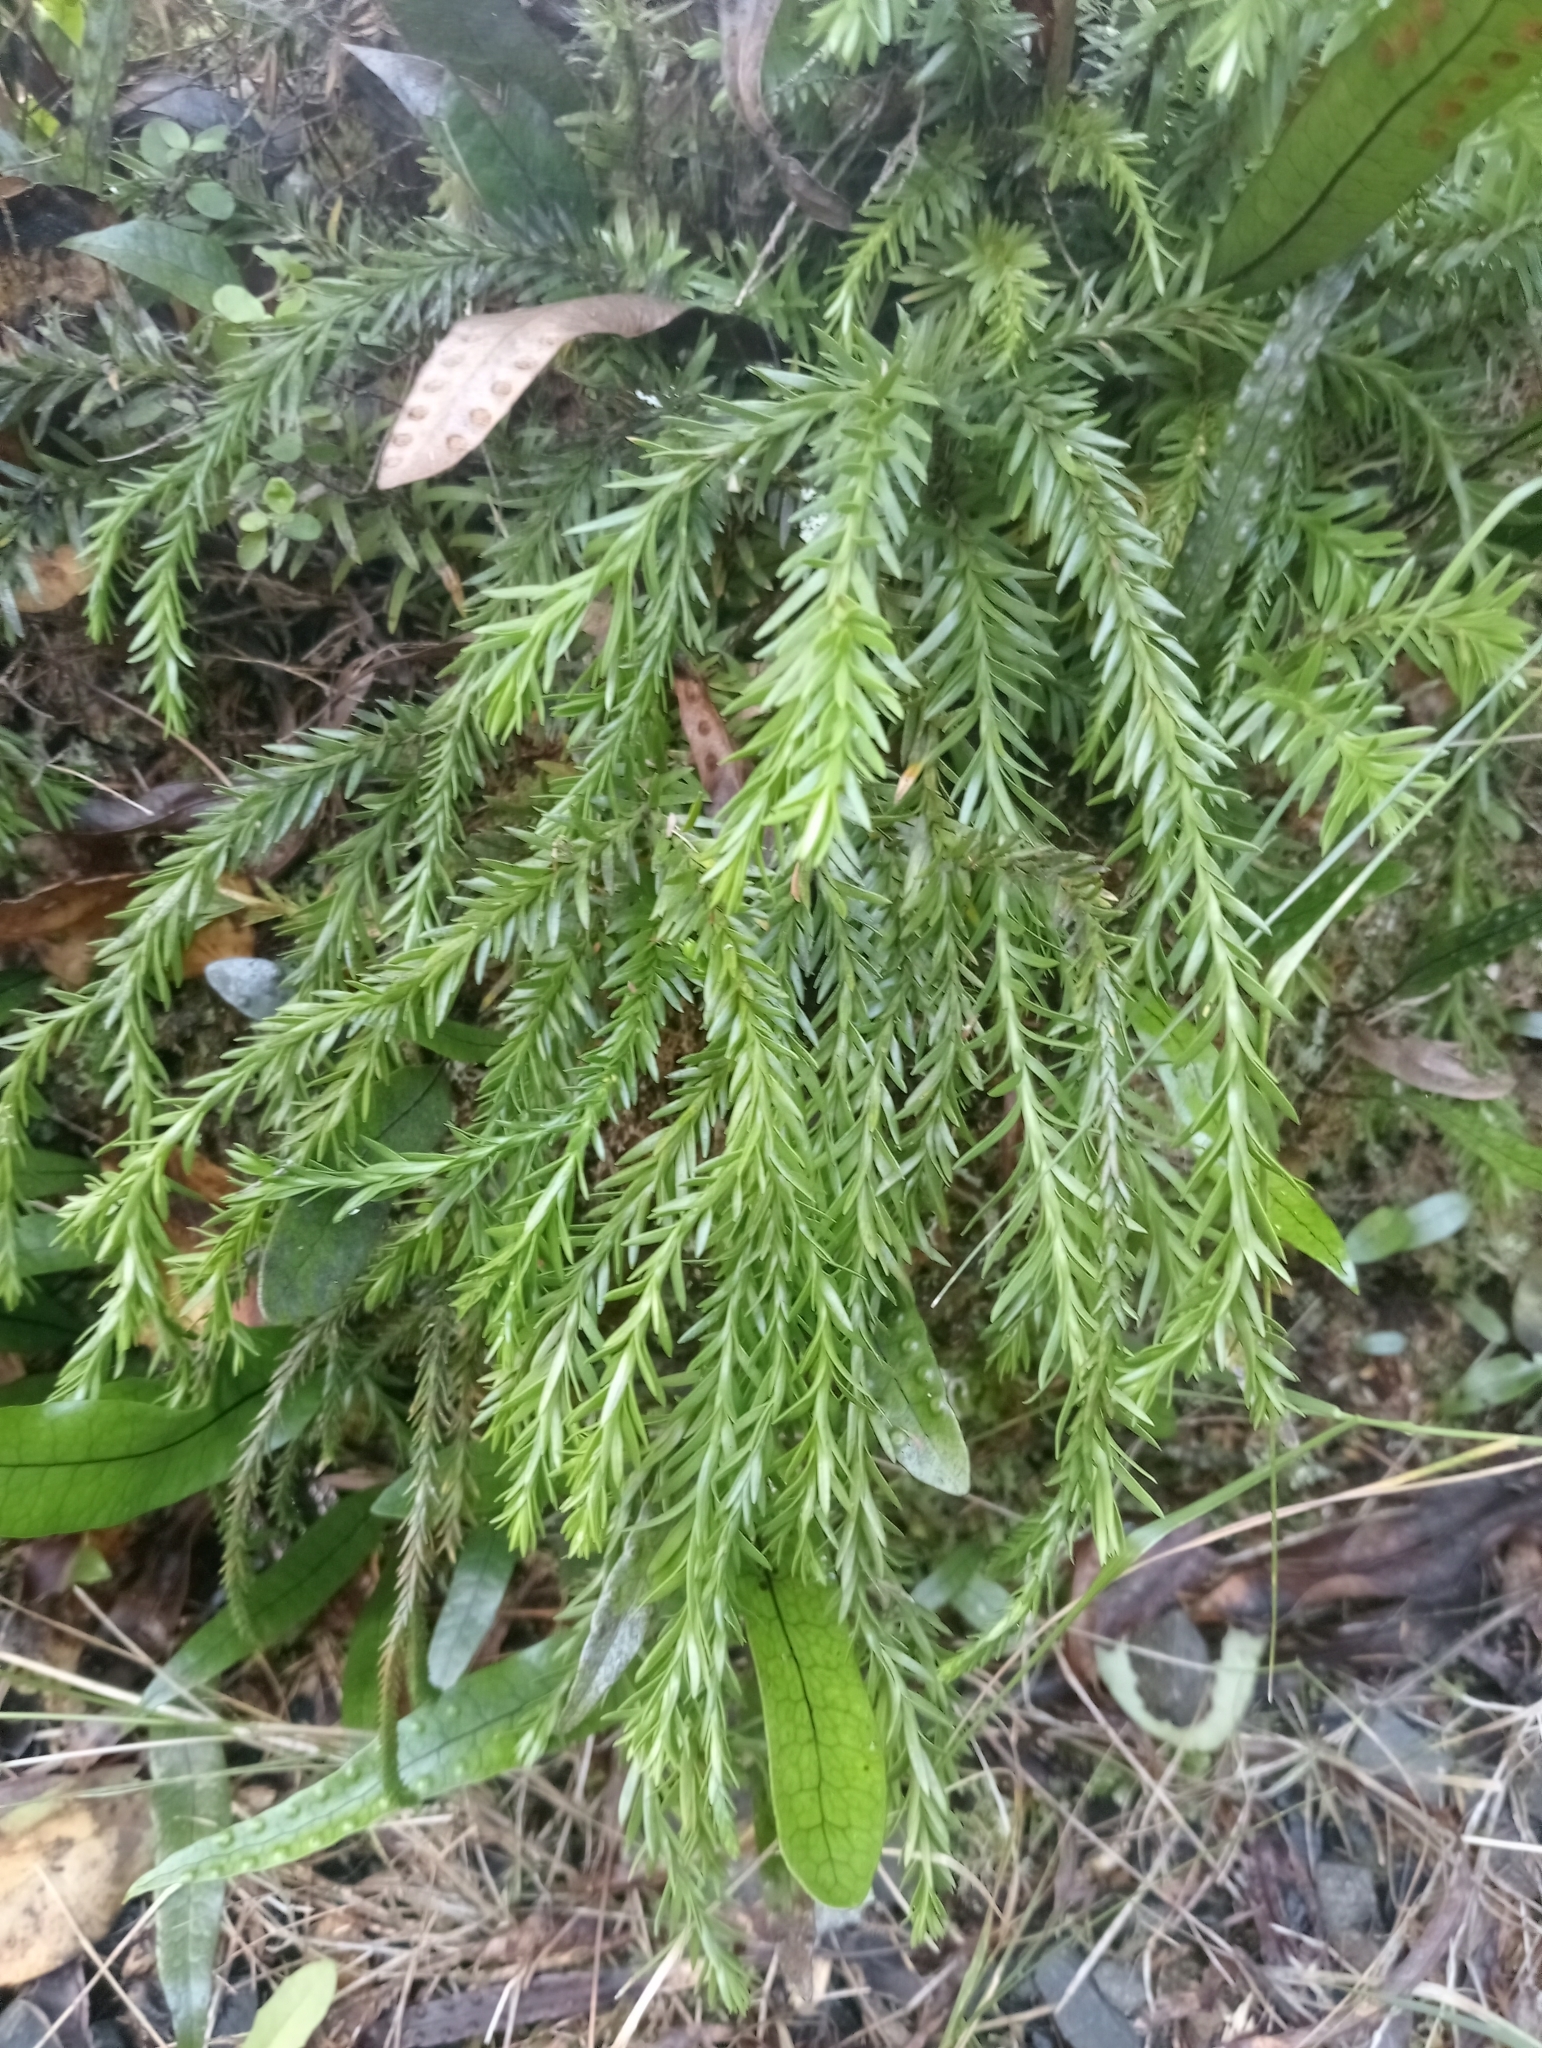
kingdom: Plantae
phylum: Tracheophyta
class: Lycopodiopsida
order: Lycopodiales
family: Lycopodiaceae
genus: Phlegmariurus
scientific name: Phlegmariurus varius
